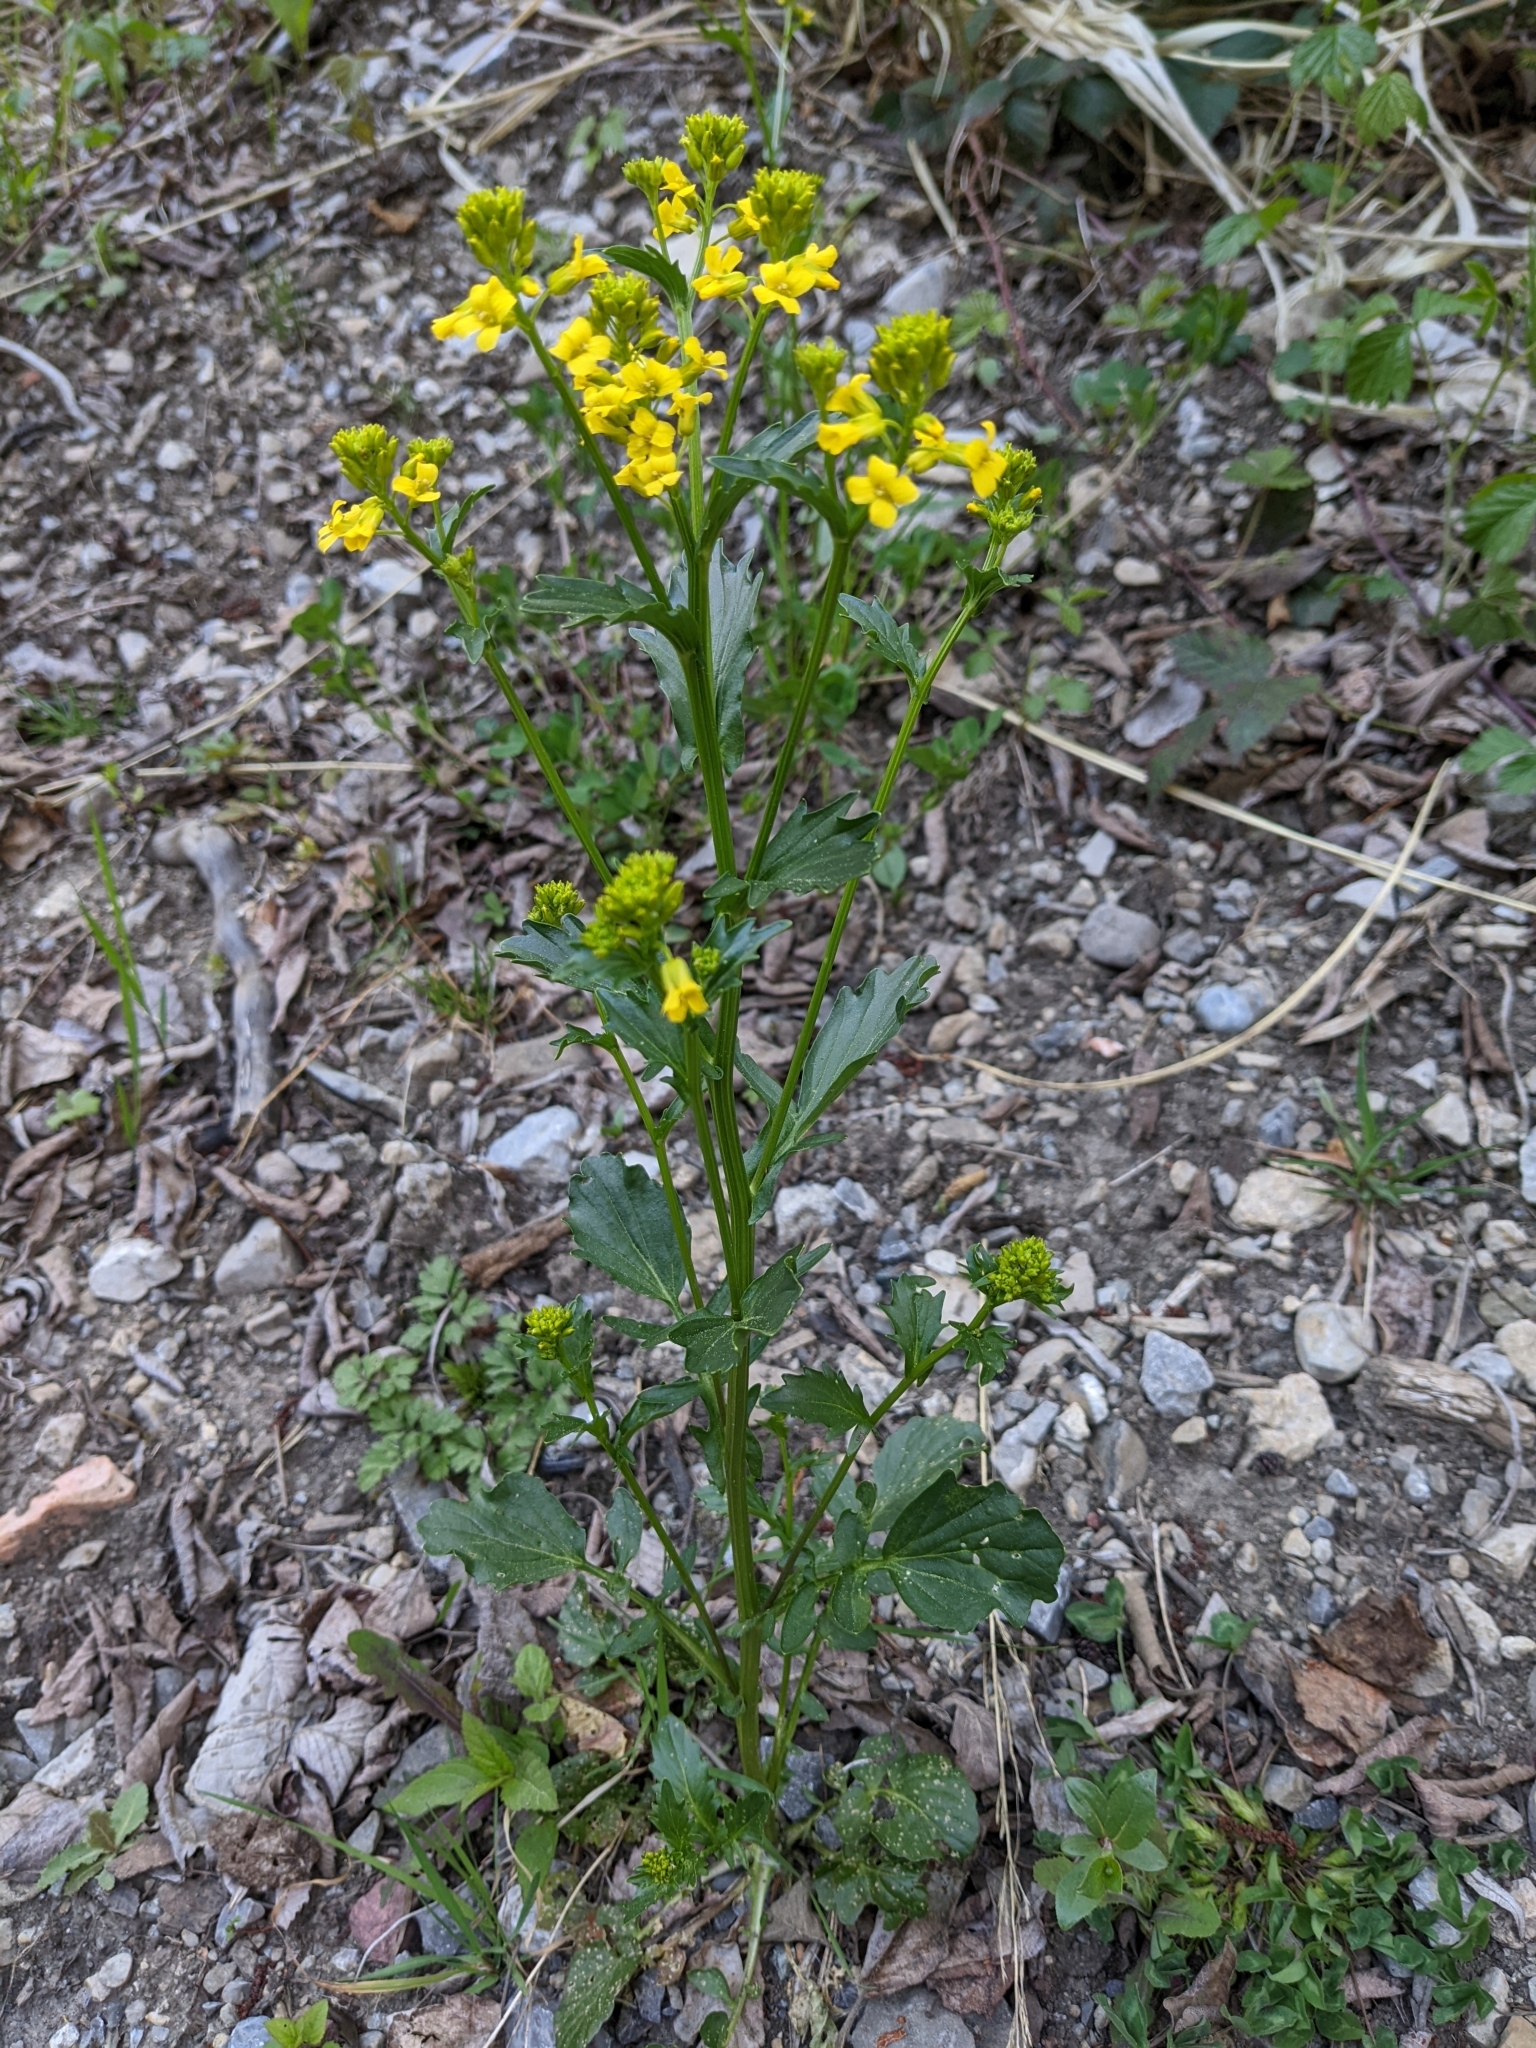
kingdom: Plantae
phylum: Tracheophyta
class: Magnoliopsida
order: Brassicales
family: Brassicaceae
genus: Barbarea
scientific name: Barbarea vulgaris
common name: Cressy-greens
